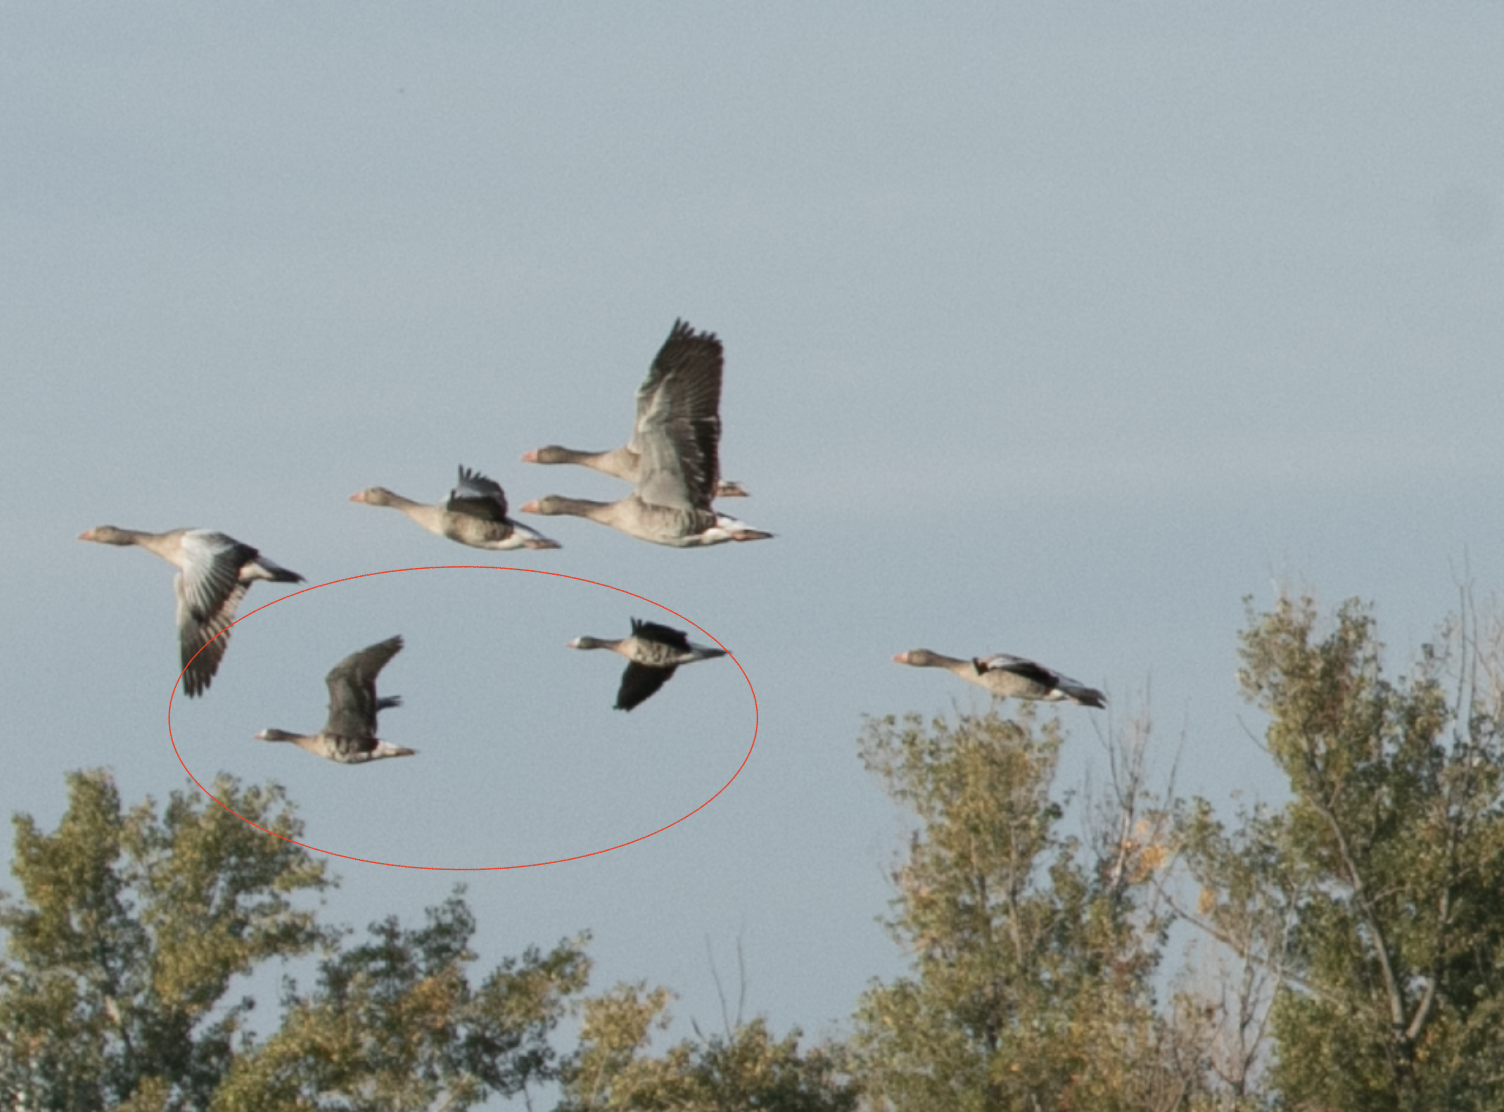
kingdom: Animalia
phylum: Chordata
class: Aves
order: Anseriformes
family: Anatidae
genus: Anser
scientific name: Anser albifrons
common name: Greater white-fronted goose
